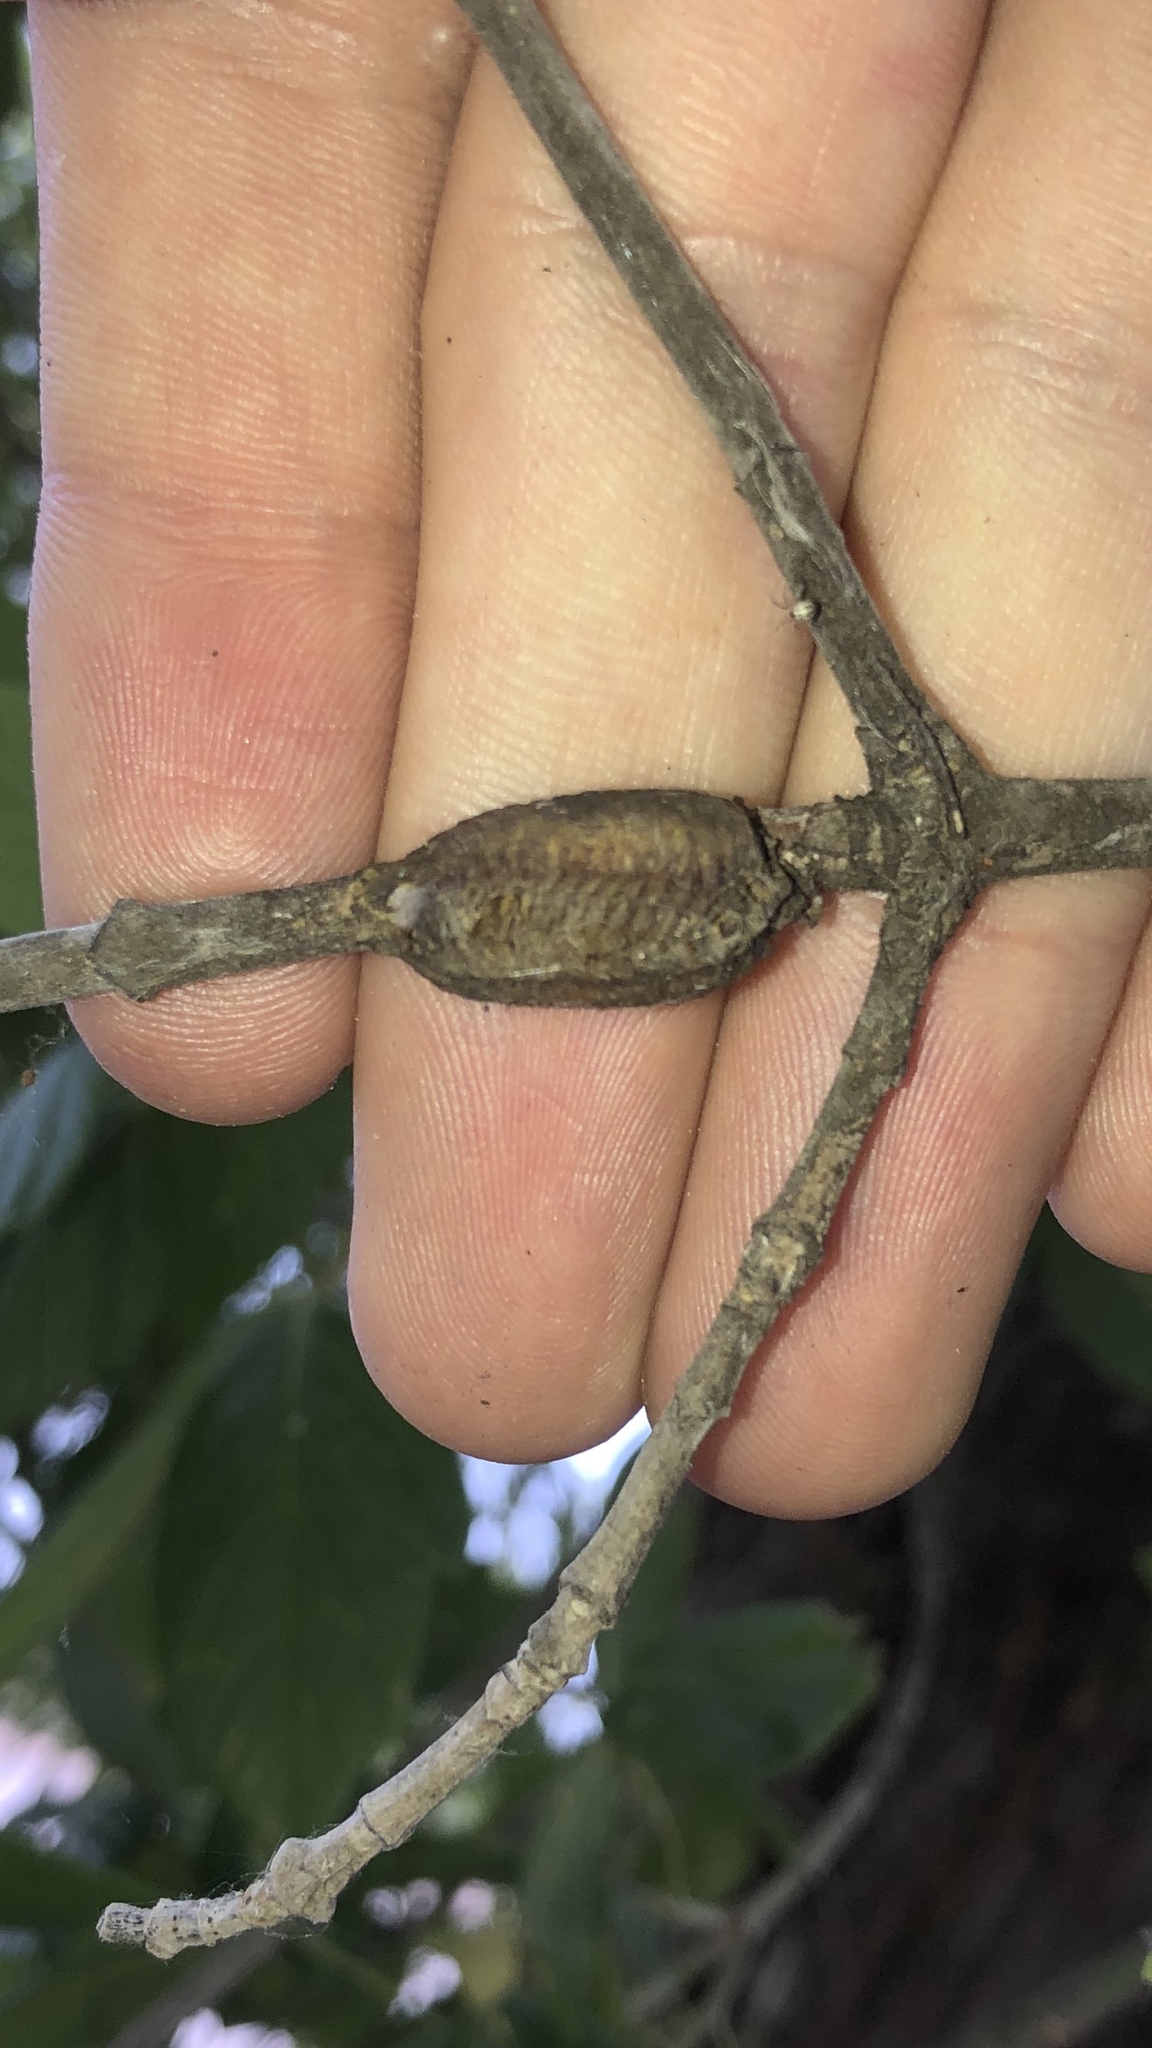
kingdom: Animalia
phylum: Arthropoda
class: Insecta
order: Mantodea
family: Mantidae
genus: Stagmomantis
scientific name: Stagmomantis carolina
